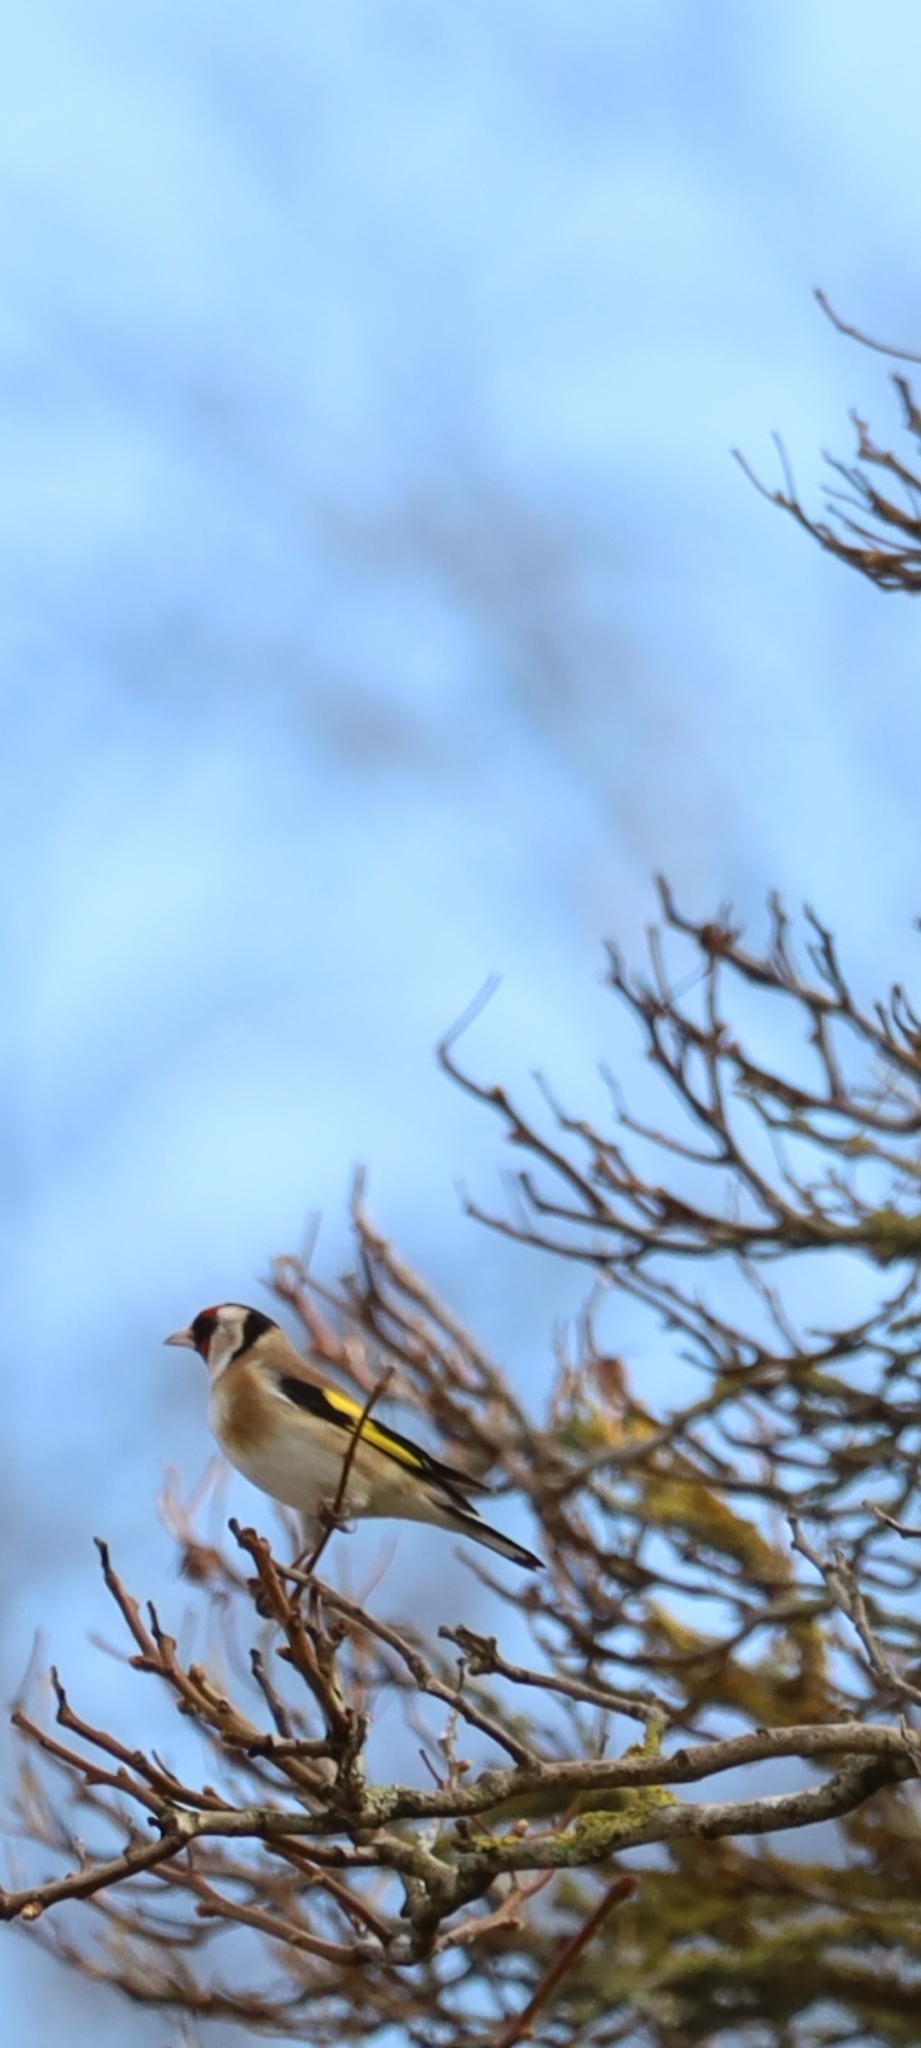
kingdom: Animalia
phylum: Chordata
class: Aves
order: Passeriformes
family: Fringillidae
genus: Carduelis
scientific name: Carduelis carduelis
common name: European goldfinch
